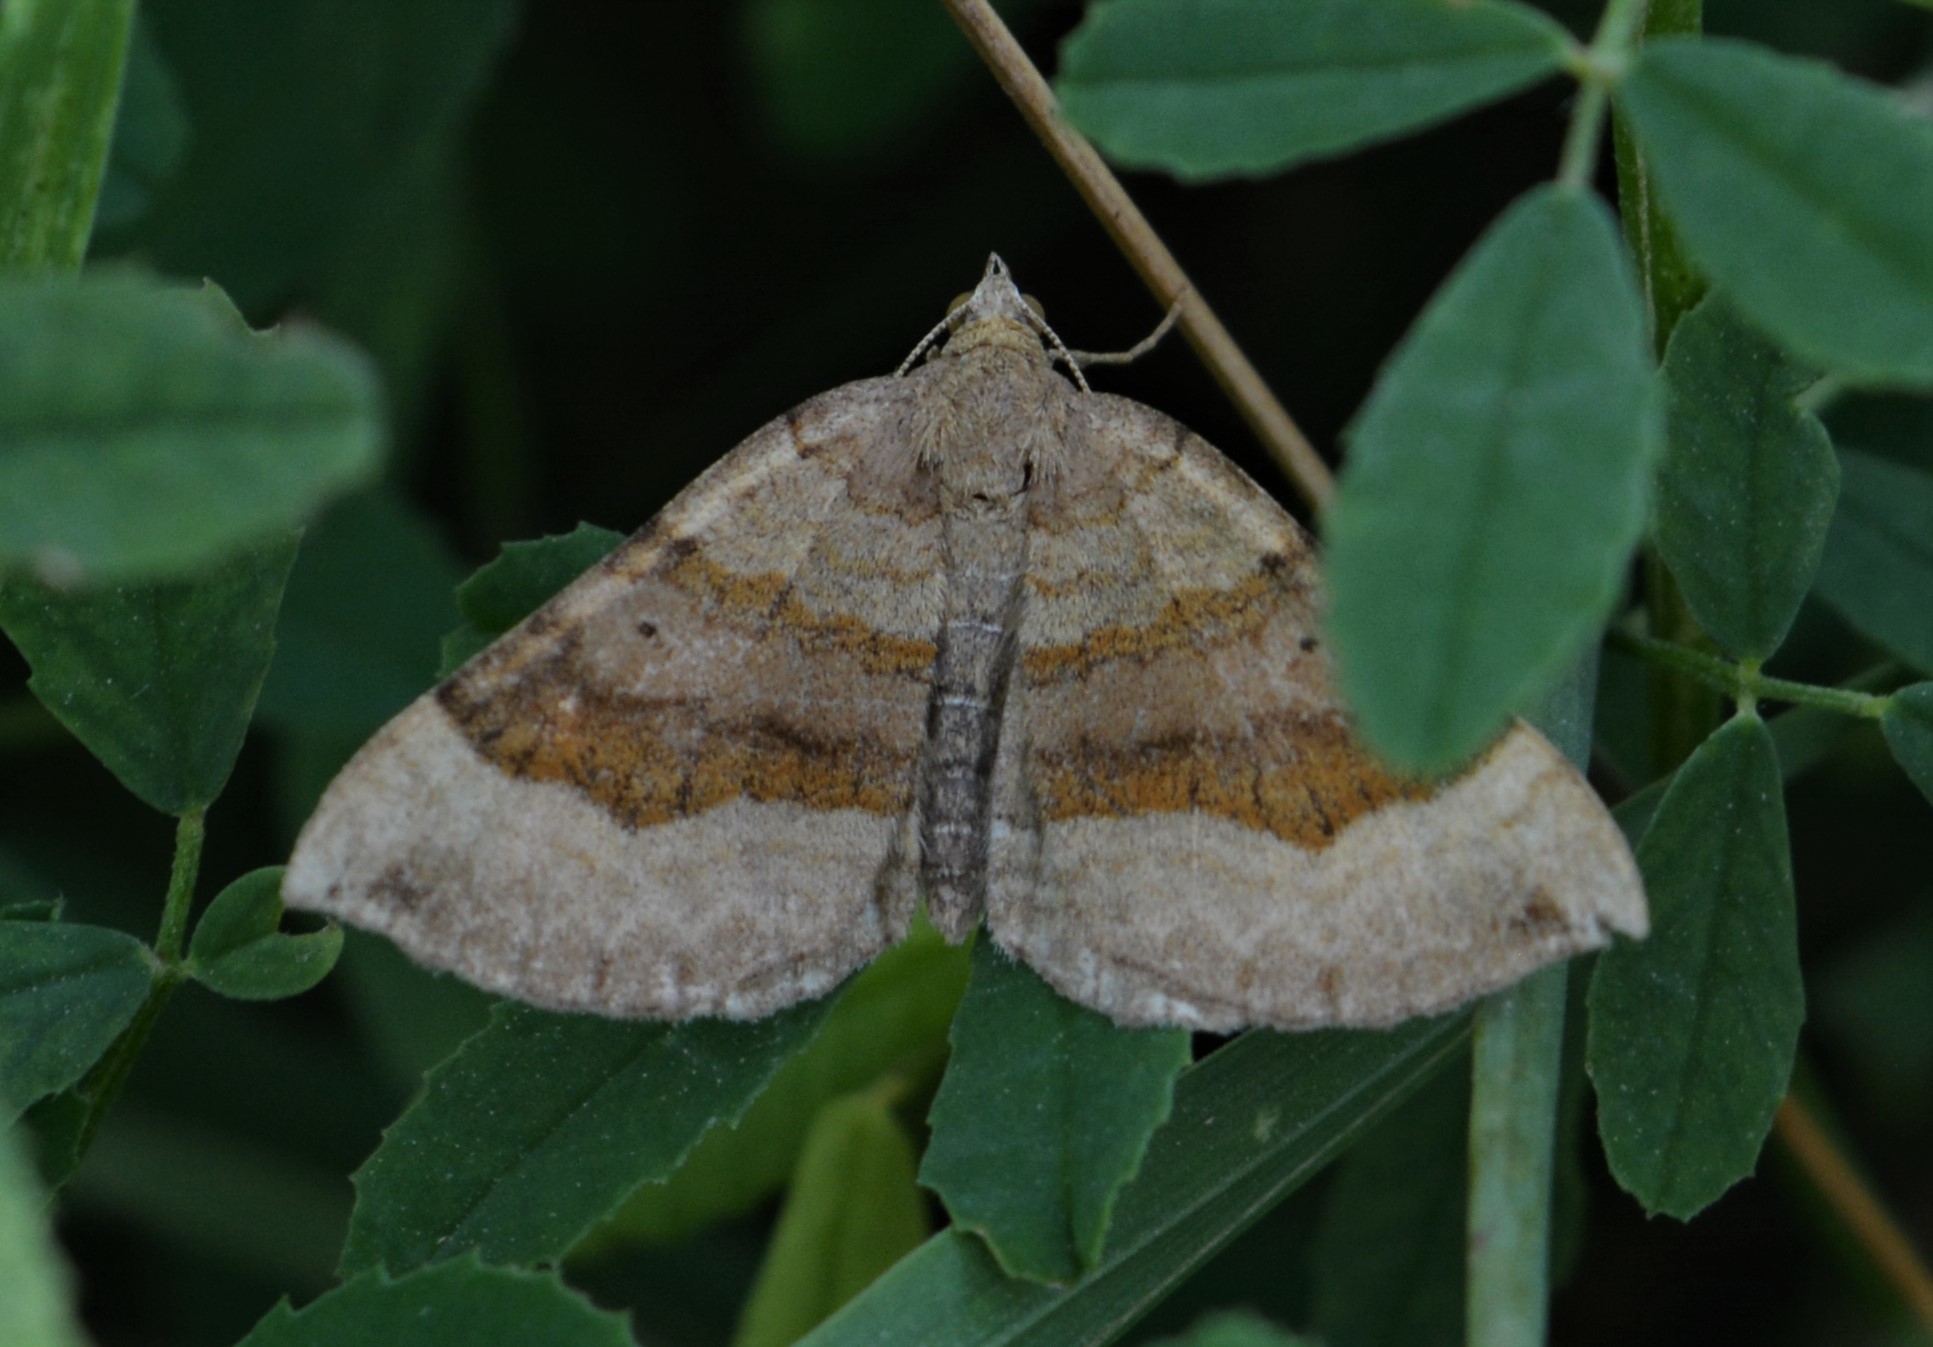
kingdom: Animalia
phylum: Arthropoda
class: Insecta
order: Lepidoptera
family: Geometridae
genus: Scotopteryx
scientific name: Scotopteryx chenopodiata
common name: Shaded broad-bar
